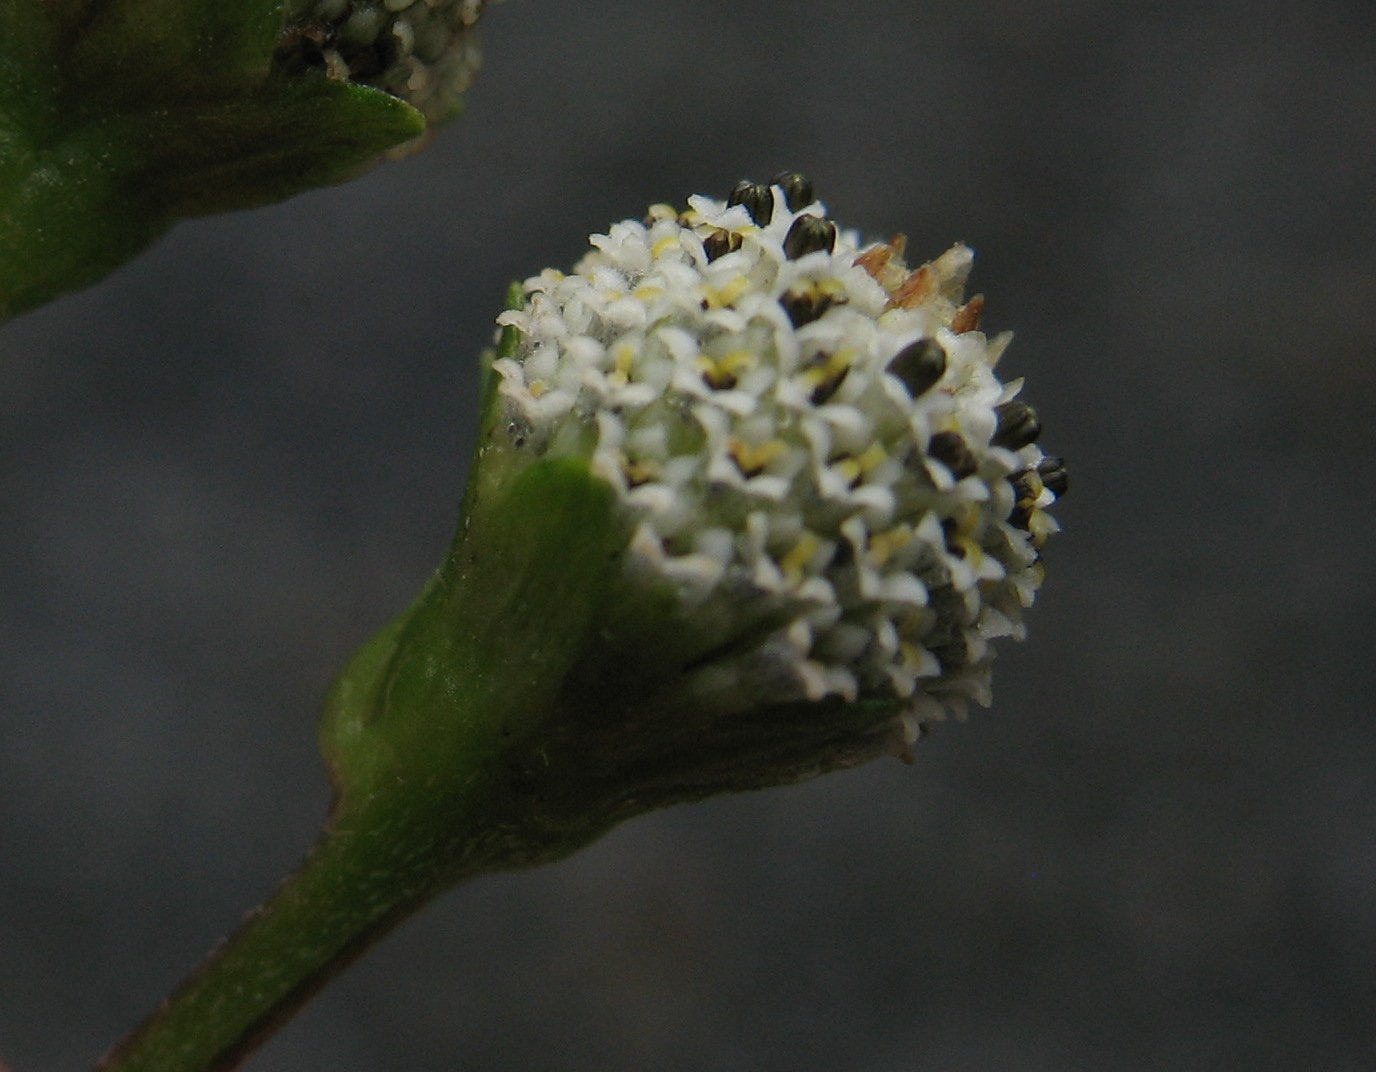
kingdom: Plantae
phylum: Tracheophyta
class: Magnoliopsida
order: Asterales
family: Asteraceae
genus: Acmella
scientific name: Acmella alba
